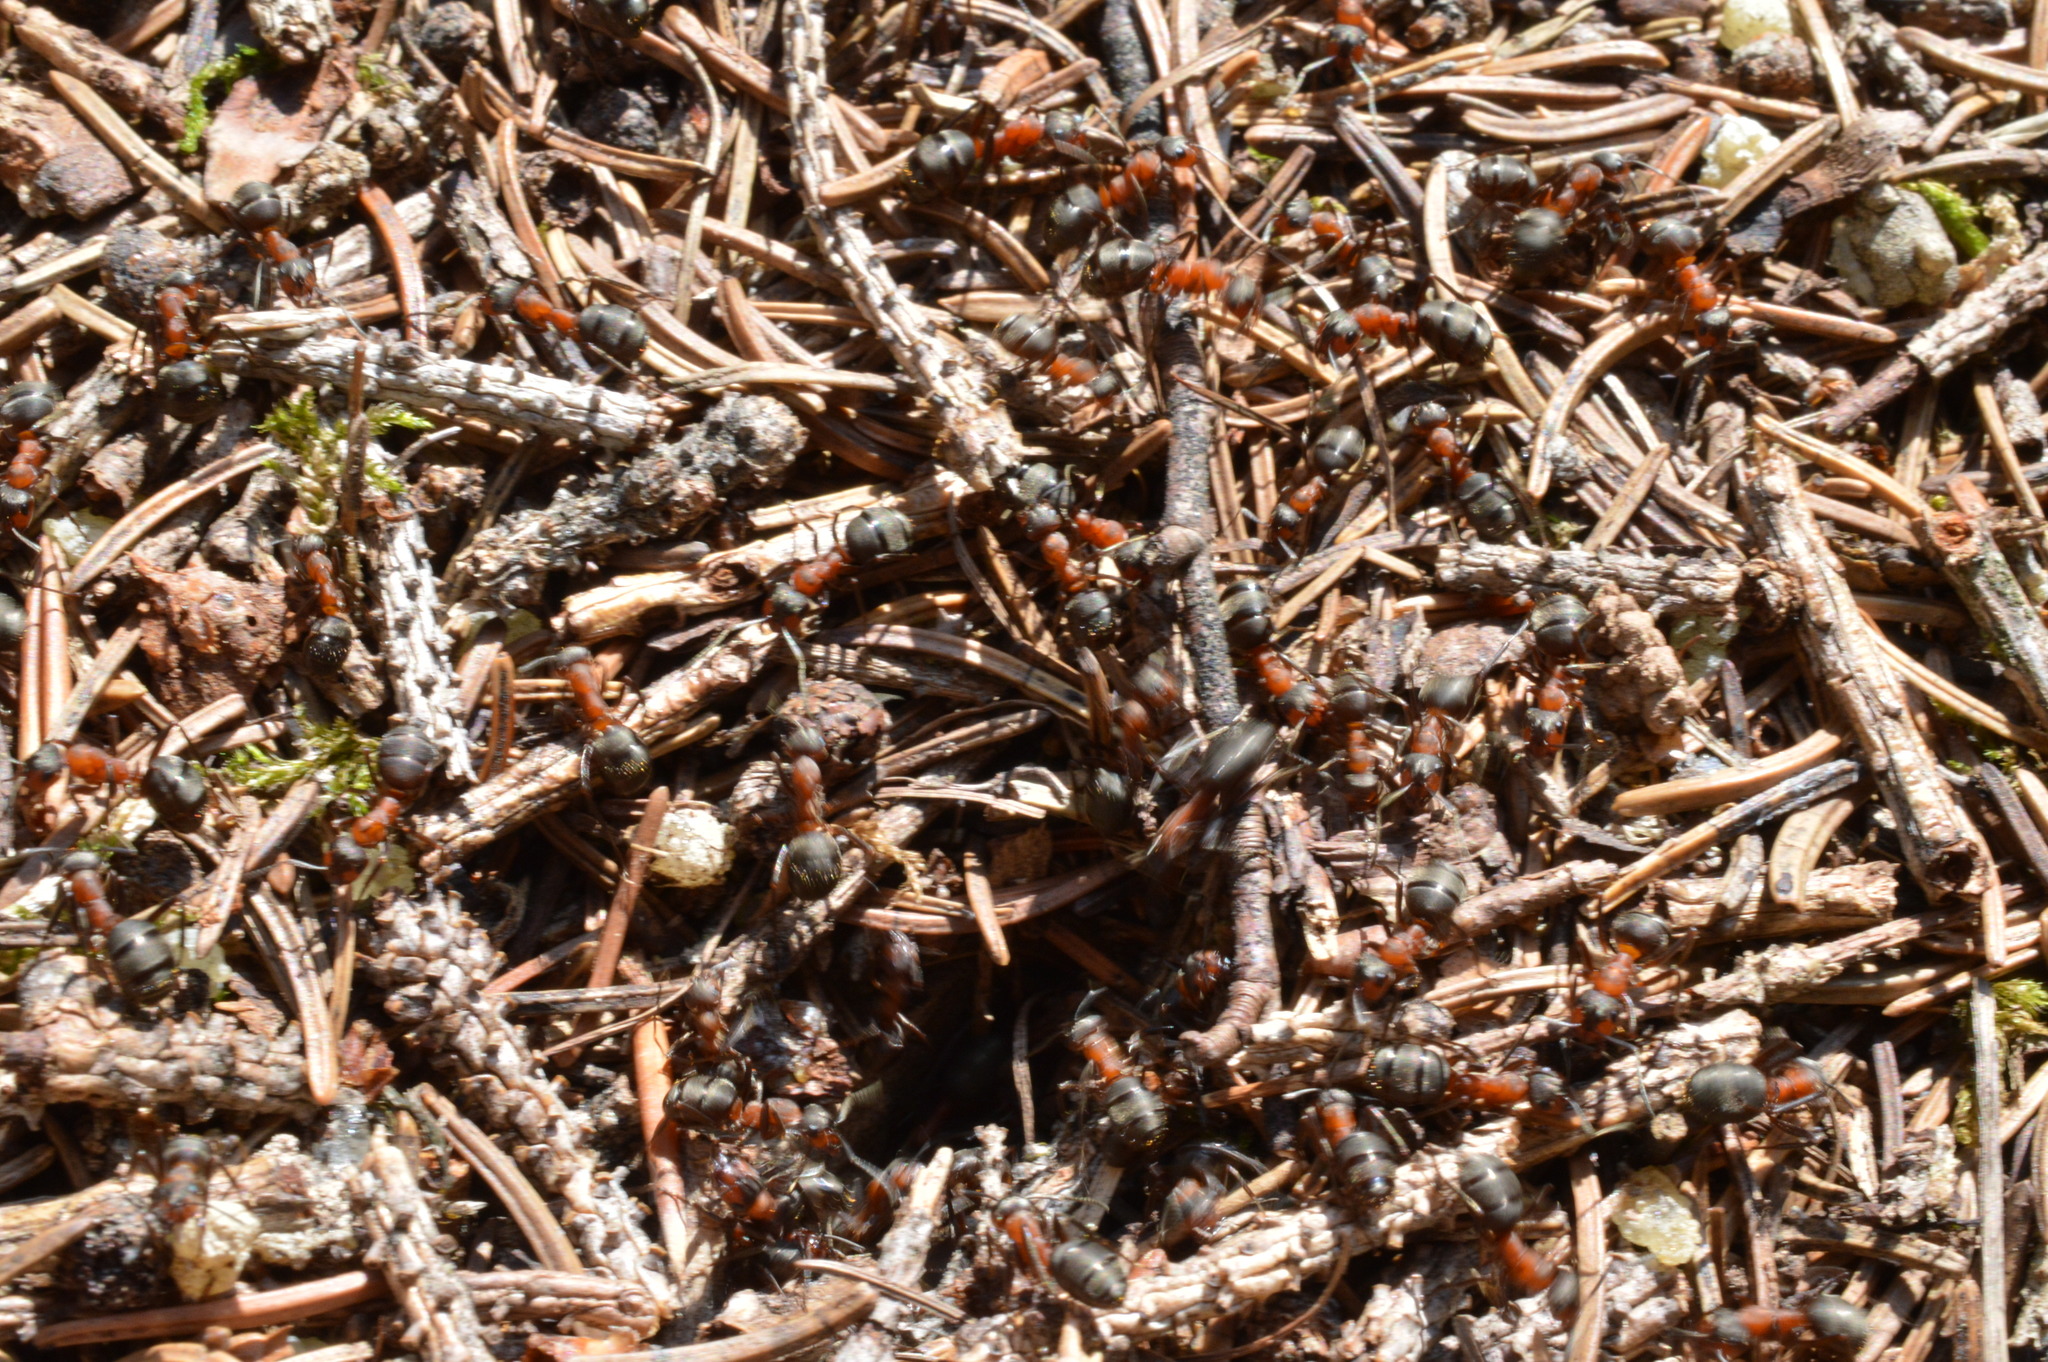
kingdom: Animalia
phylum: Arthropoda
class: Insecta
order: Hymenoptera
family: Formicidae
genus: Formica
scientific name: Formica rufa
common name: Red wood ant
